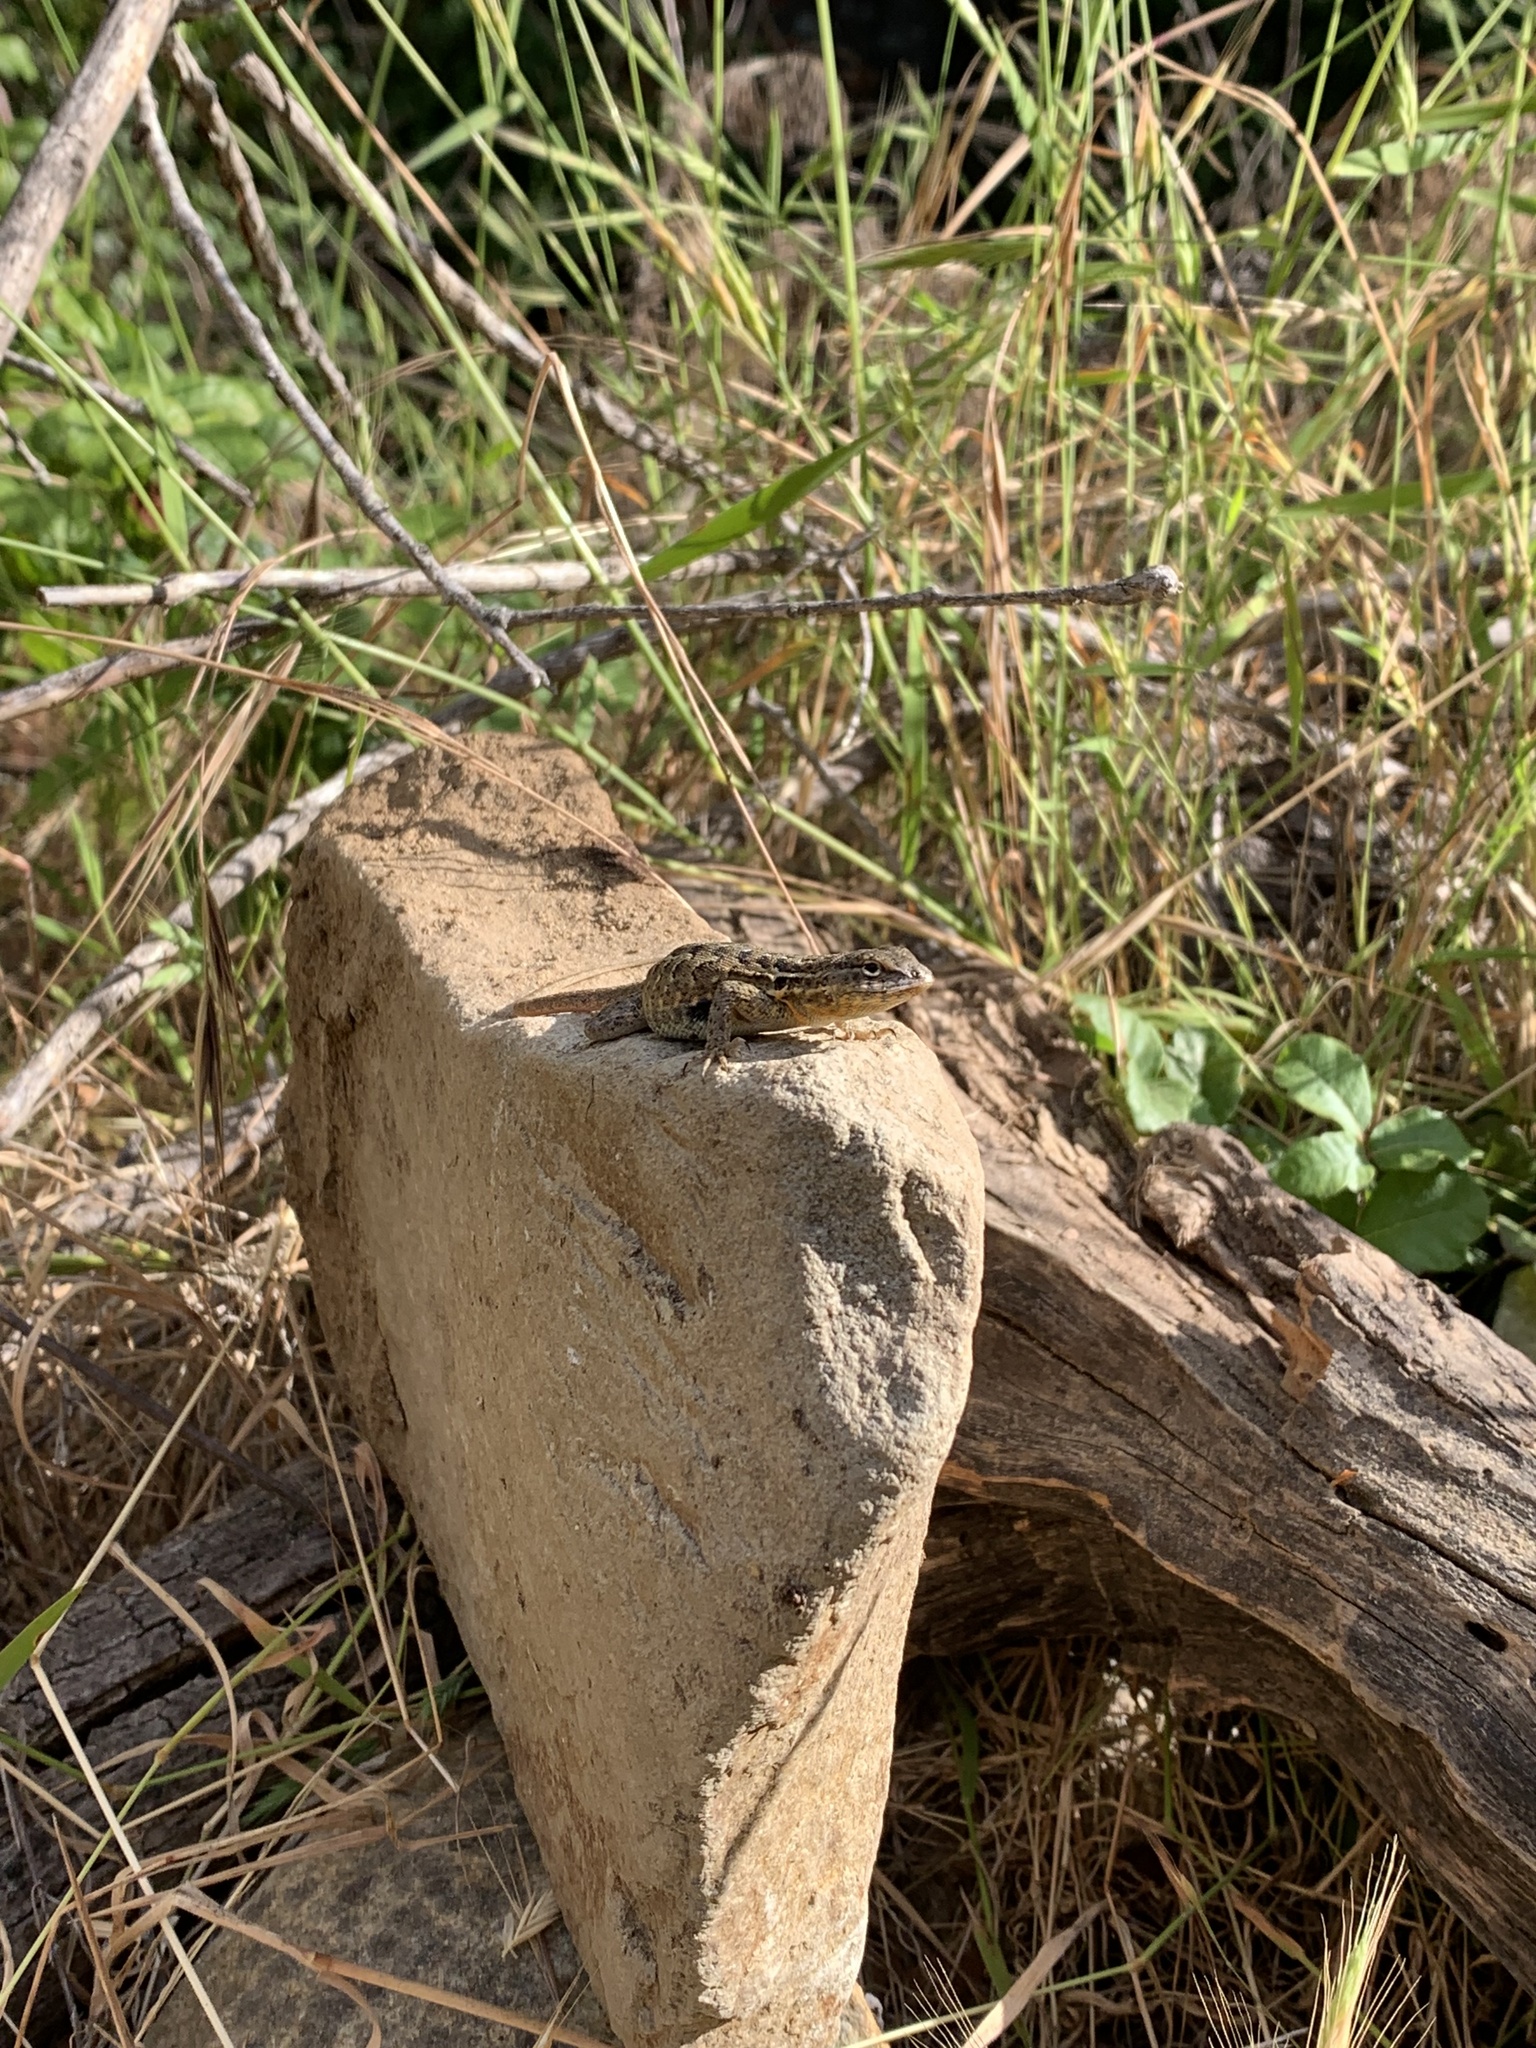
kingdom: Animalia
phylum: Chordata
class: Squamata
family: Phrynosomatidae
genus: Uta
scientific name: Uta stansburiana
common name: Side-blotched lizard
